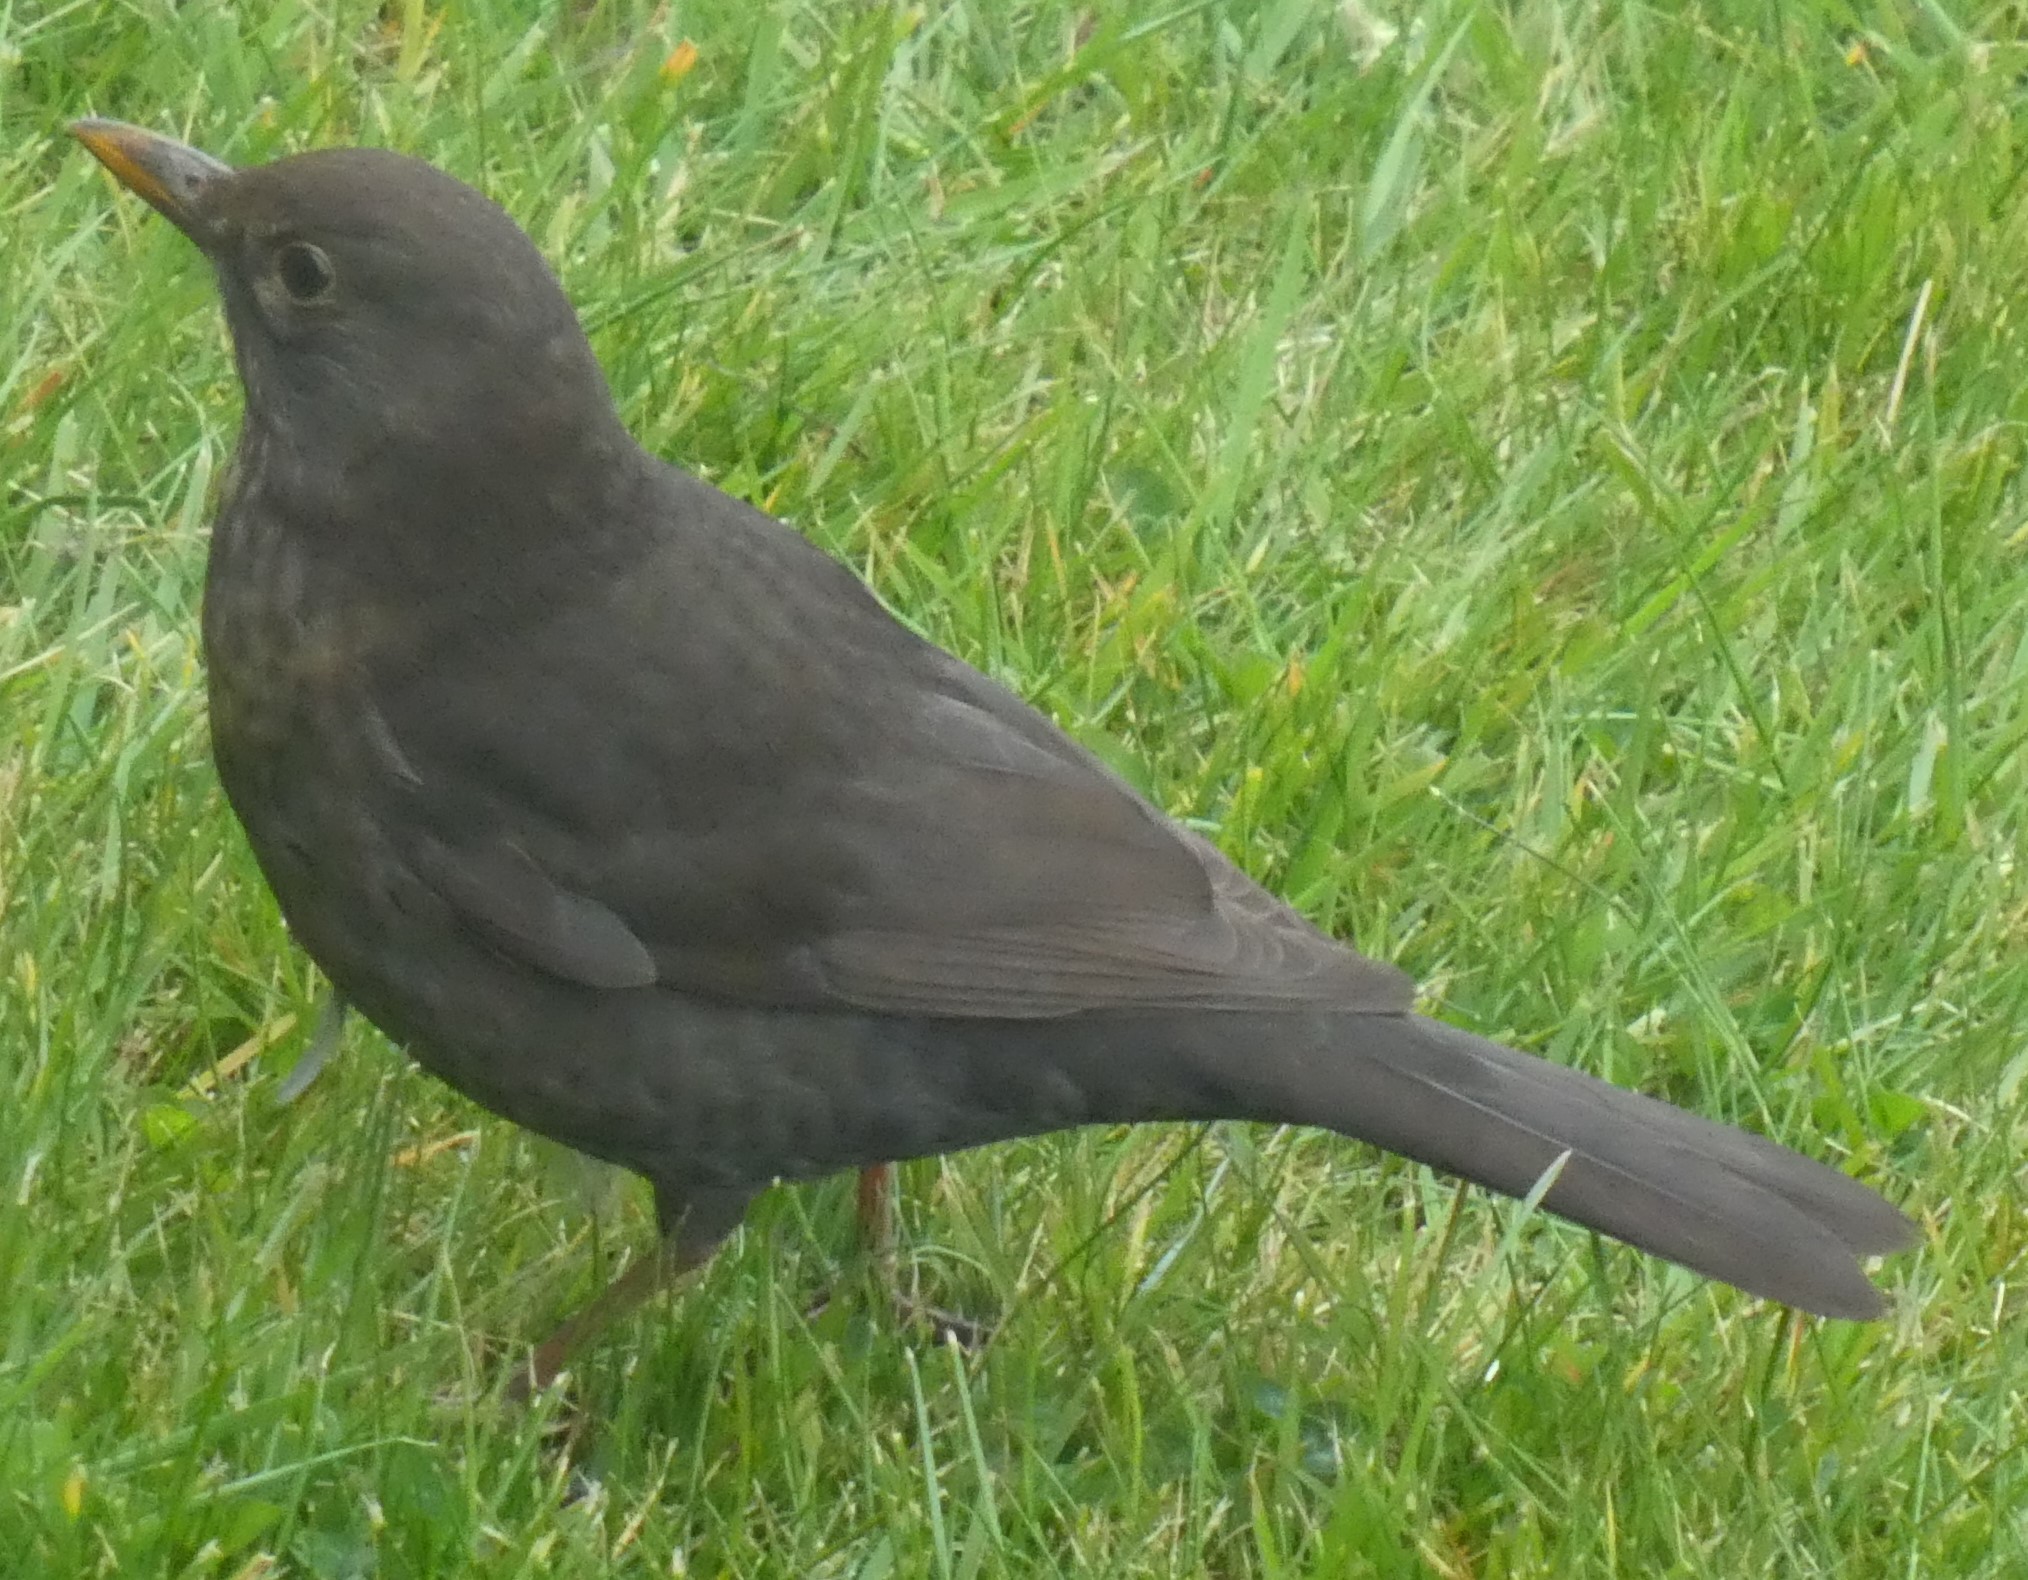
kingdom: Animalia
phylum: Chordata
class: Aves
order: Passeriformes
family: Turdidae
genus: Turdus
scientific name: Turdus merula
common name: Common blackbird
